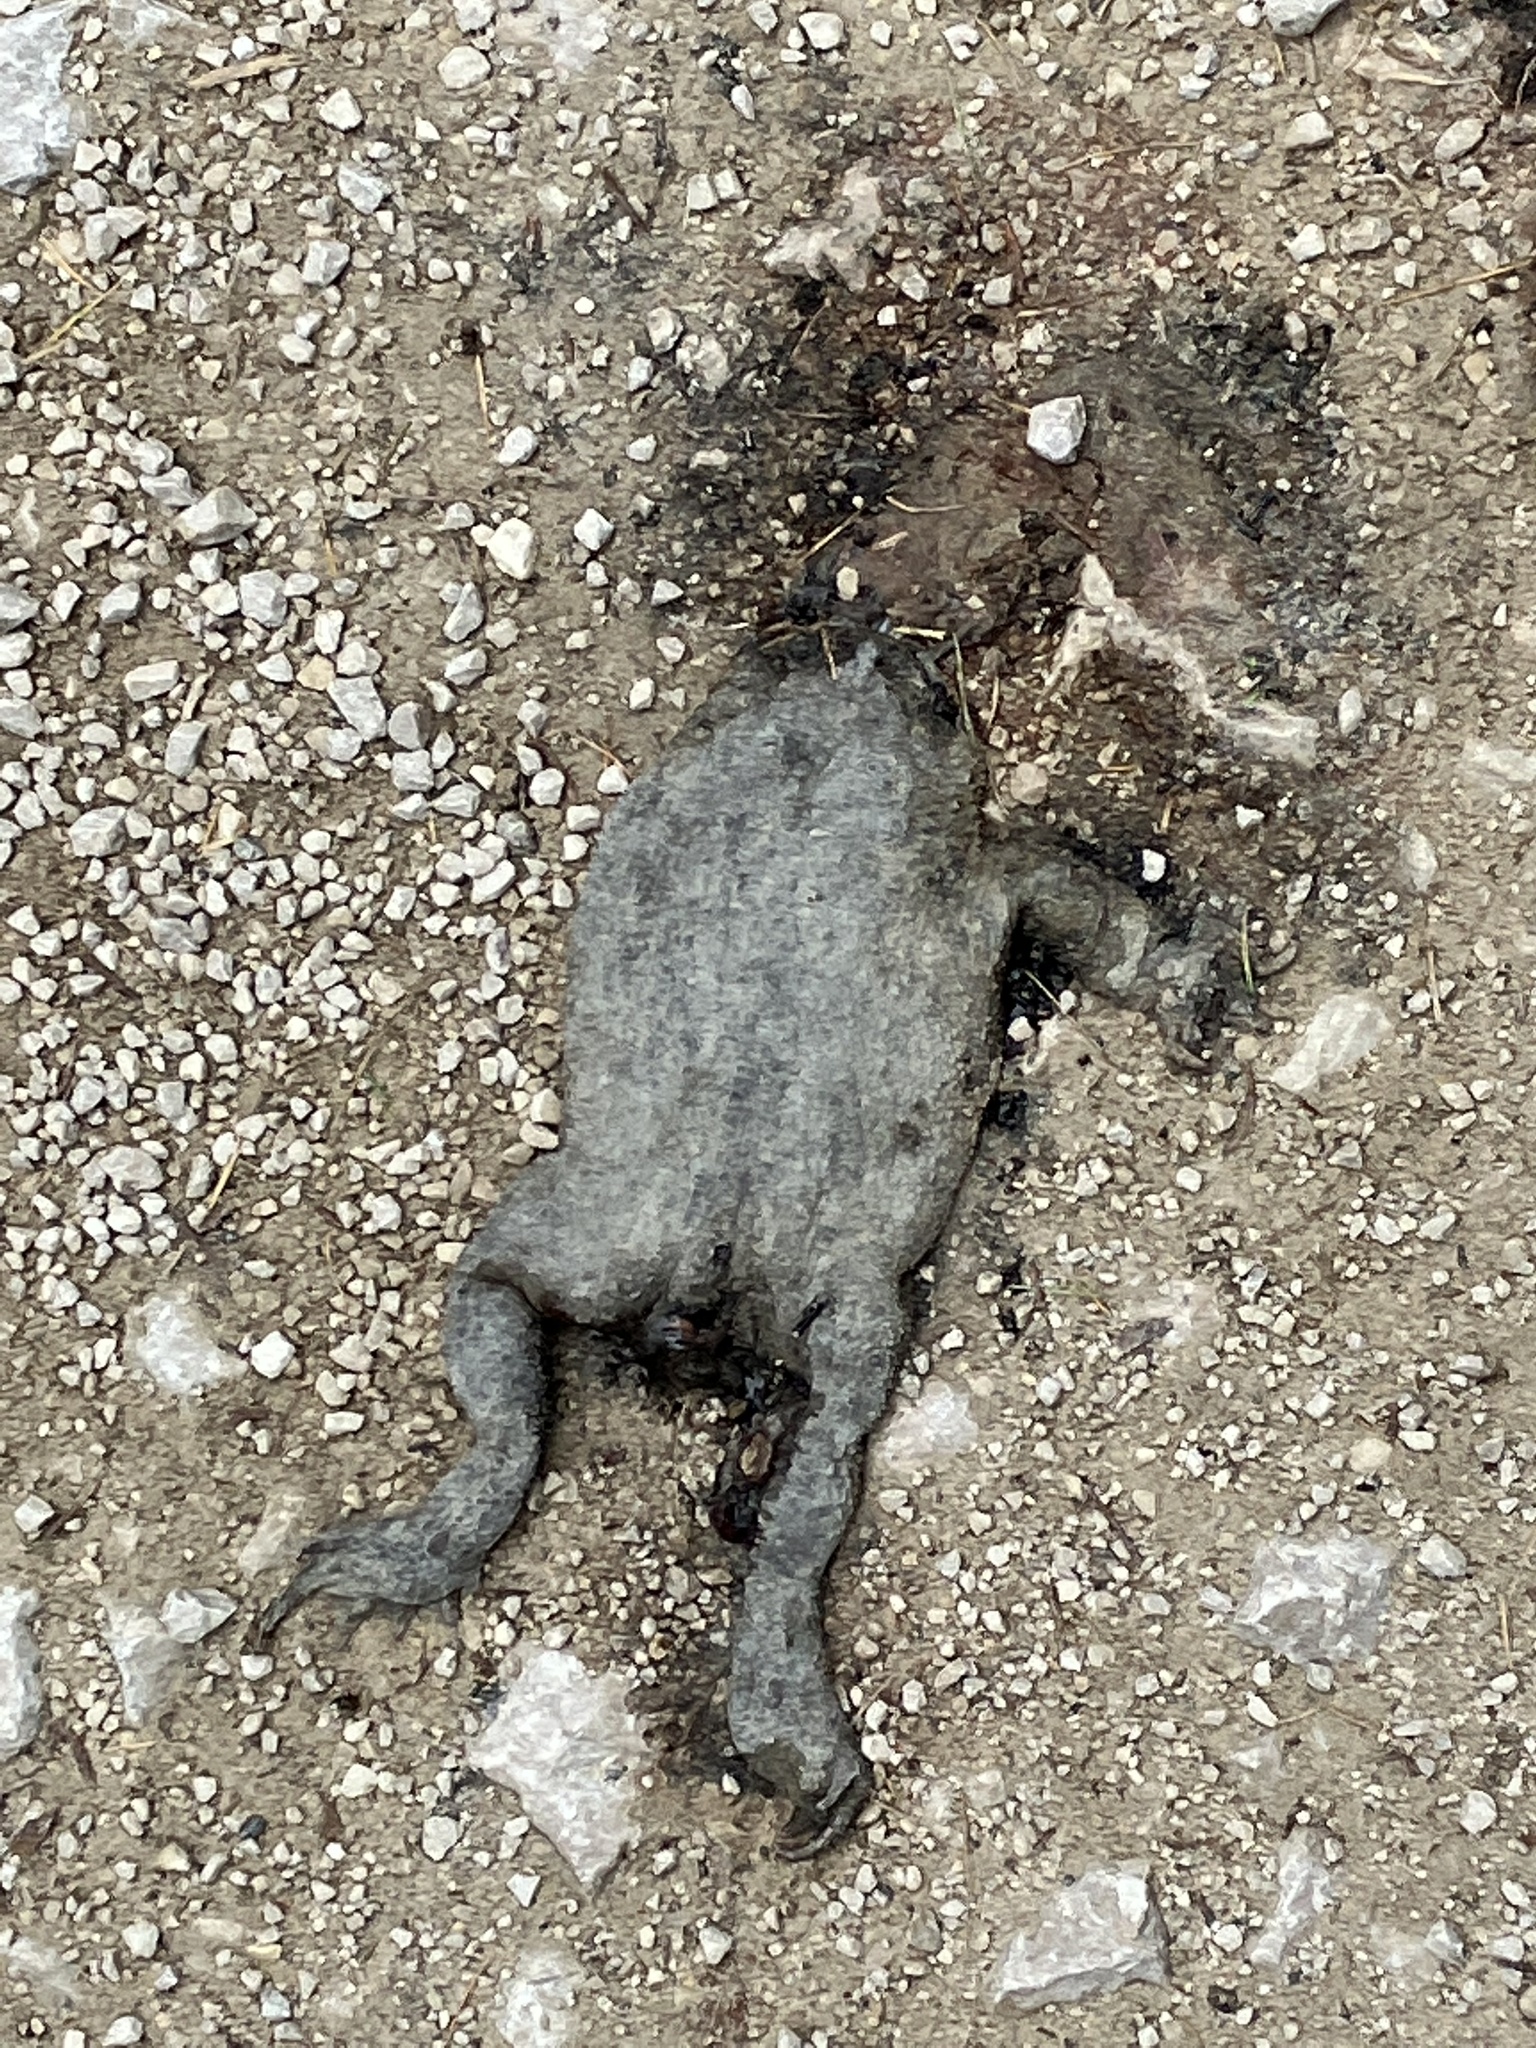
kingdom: Animalia
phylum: Chordata
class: Amphibia
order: Anura
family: Bufonidae
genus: Bufo
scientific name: Bufo bufo
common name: Common toad
